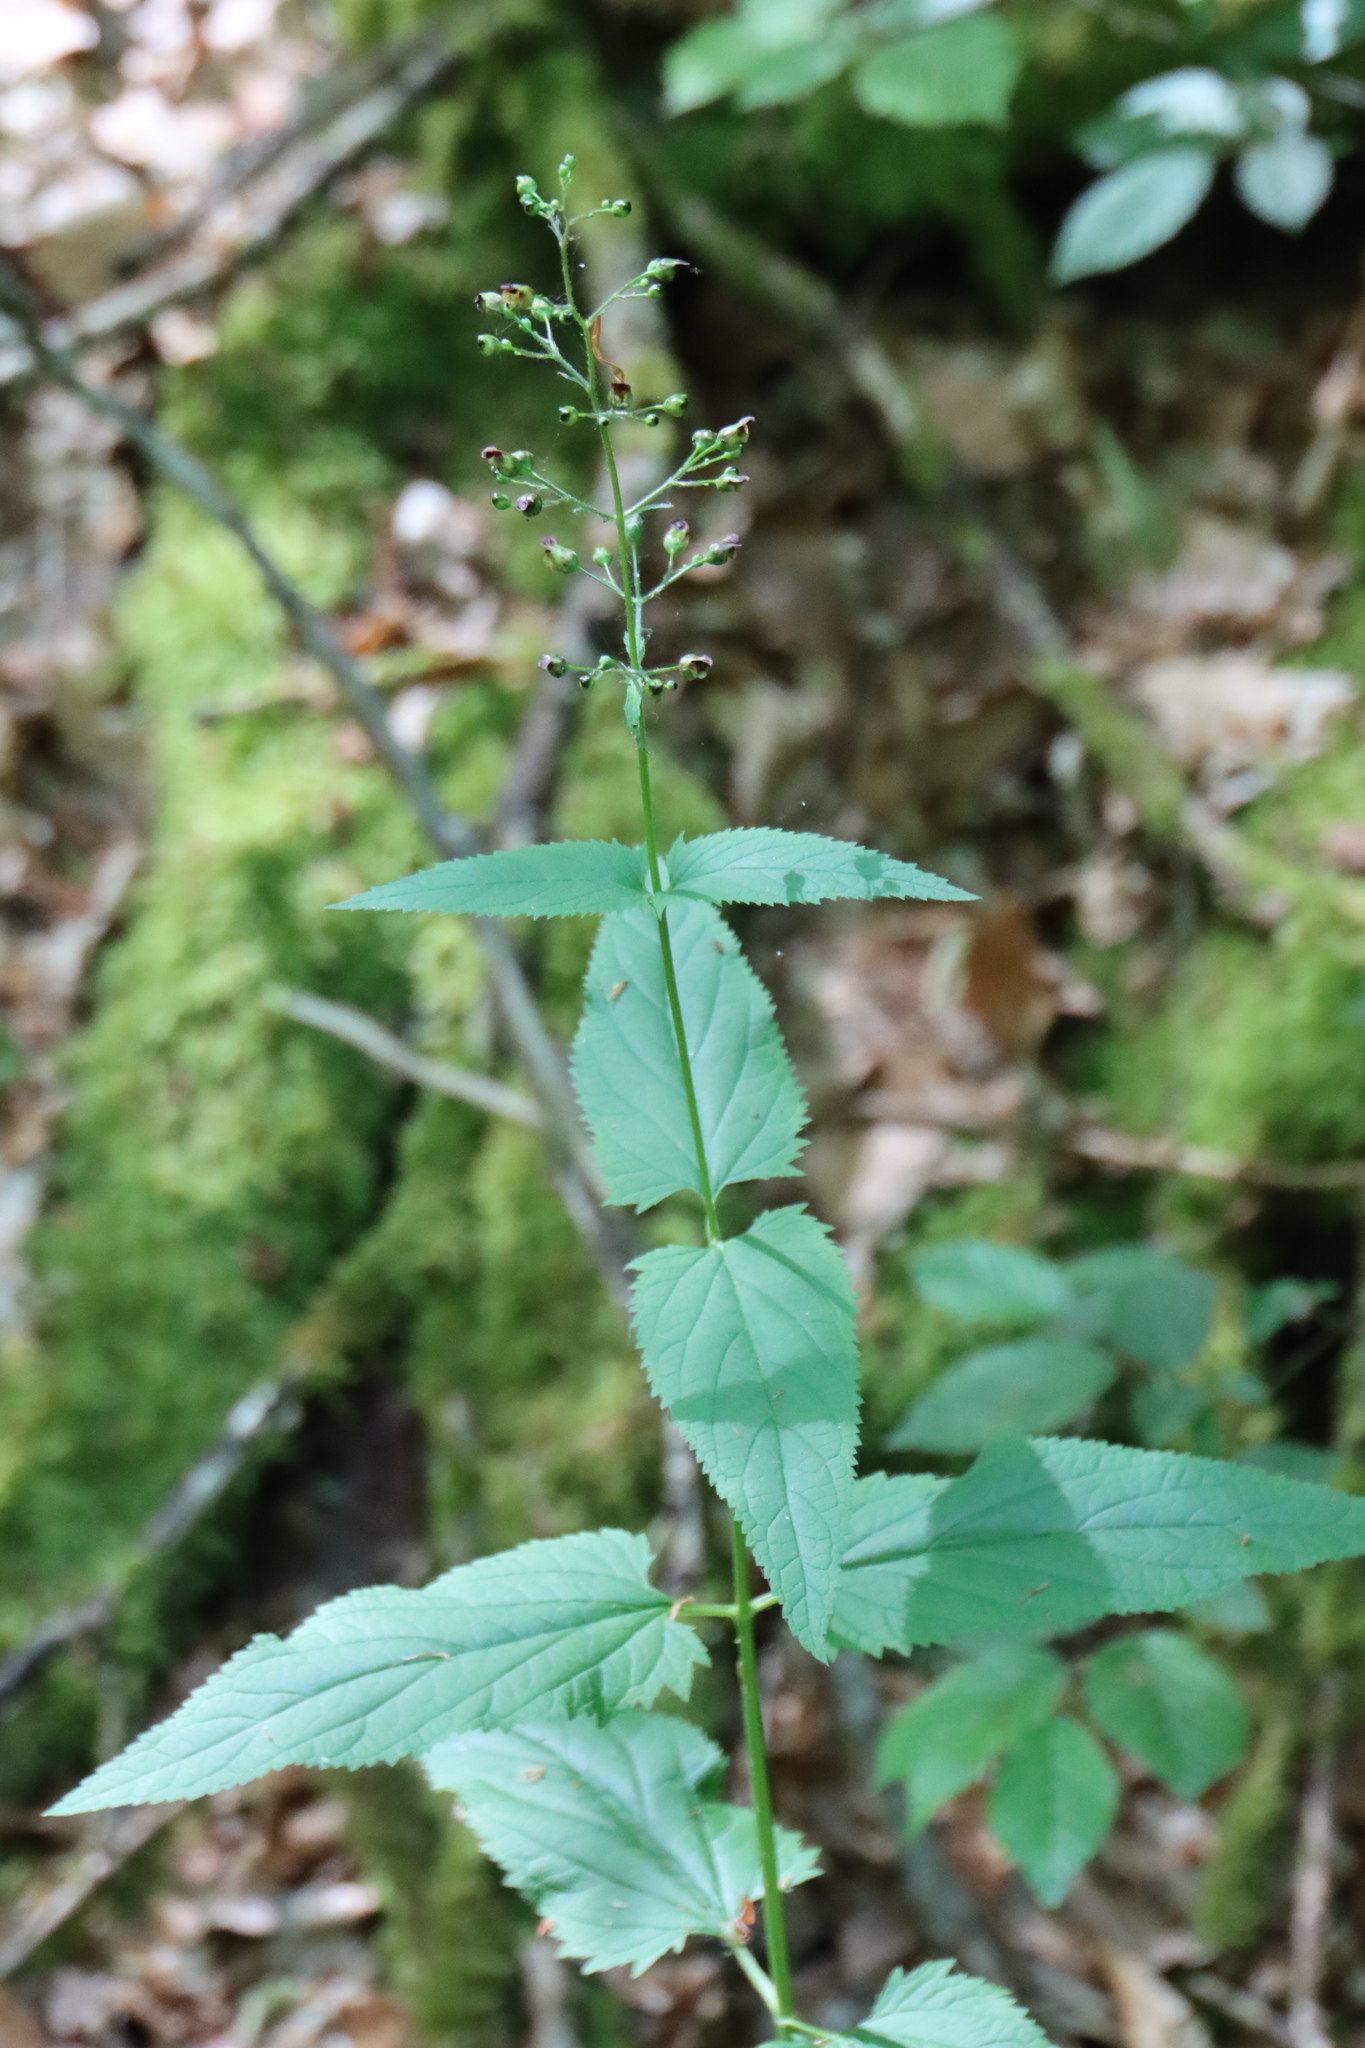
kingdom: Plantae
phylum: Tracheophyta
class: Magnoliopsida
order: Lamiales
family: Scrophulariaceae
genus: Scrophularia
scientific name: Scrophularia nodosa
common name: Common figwort
